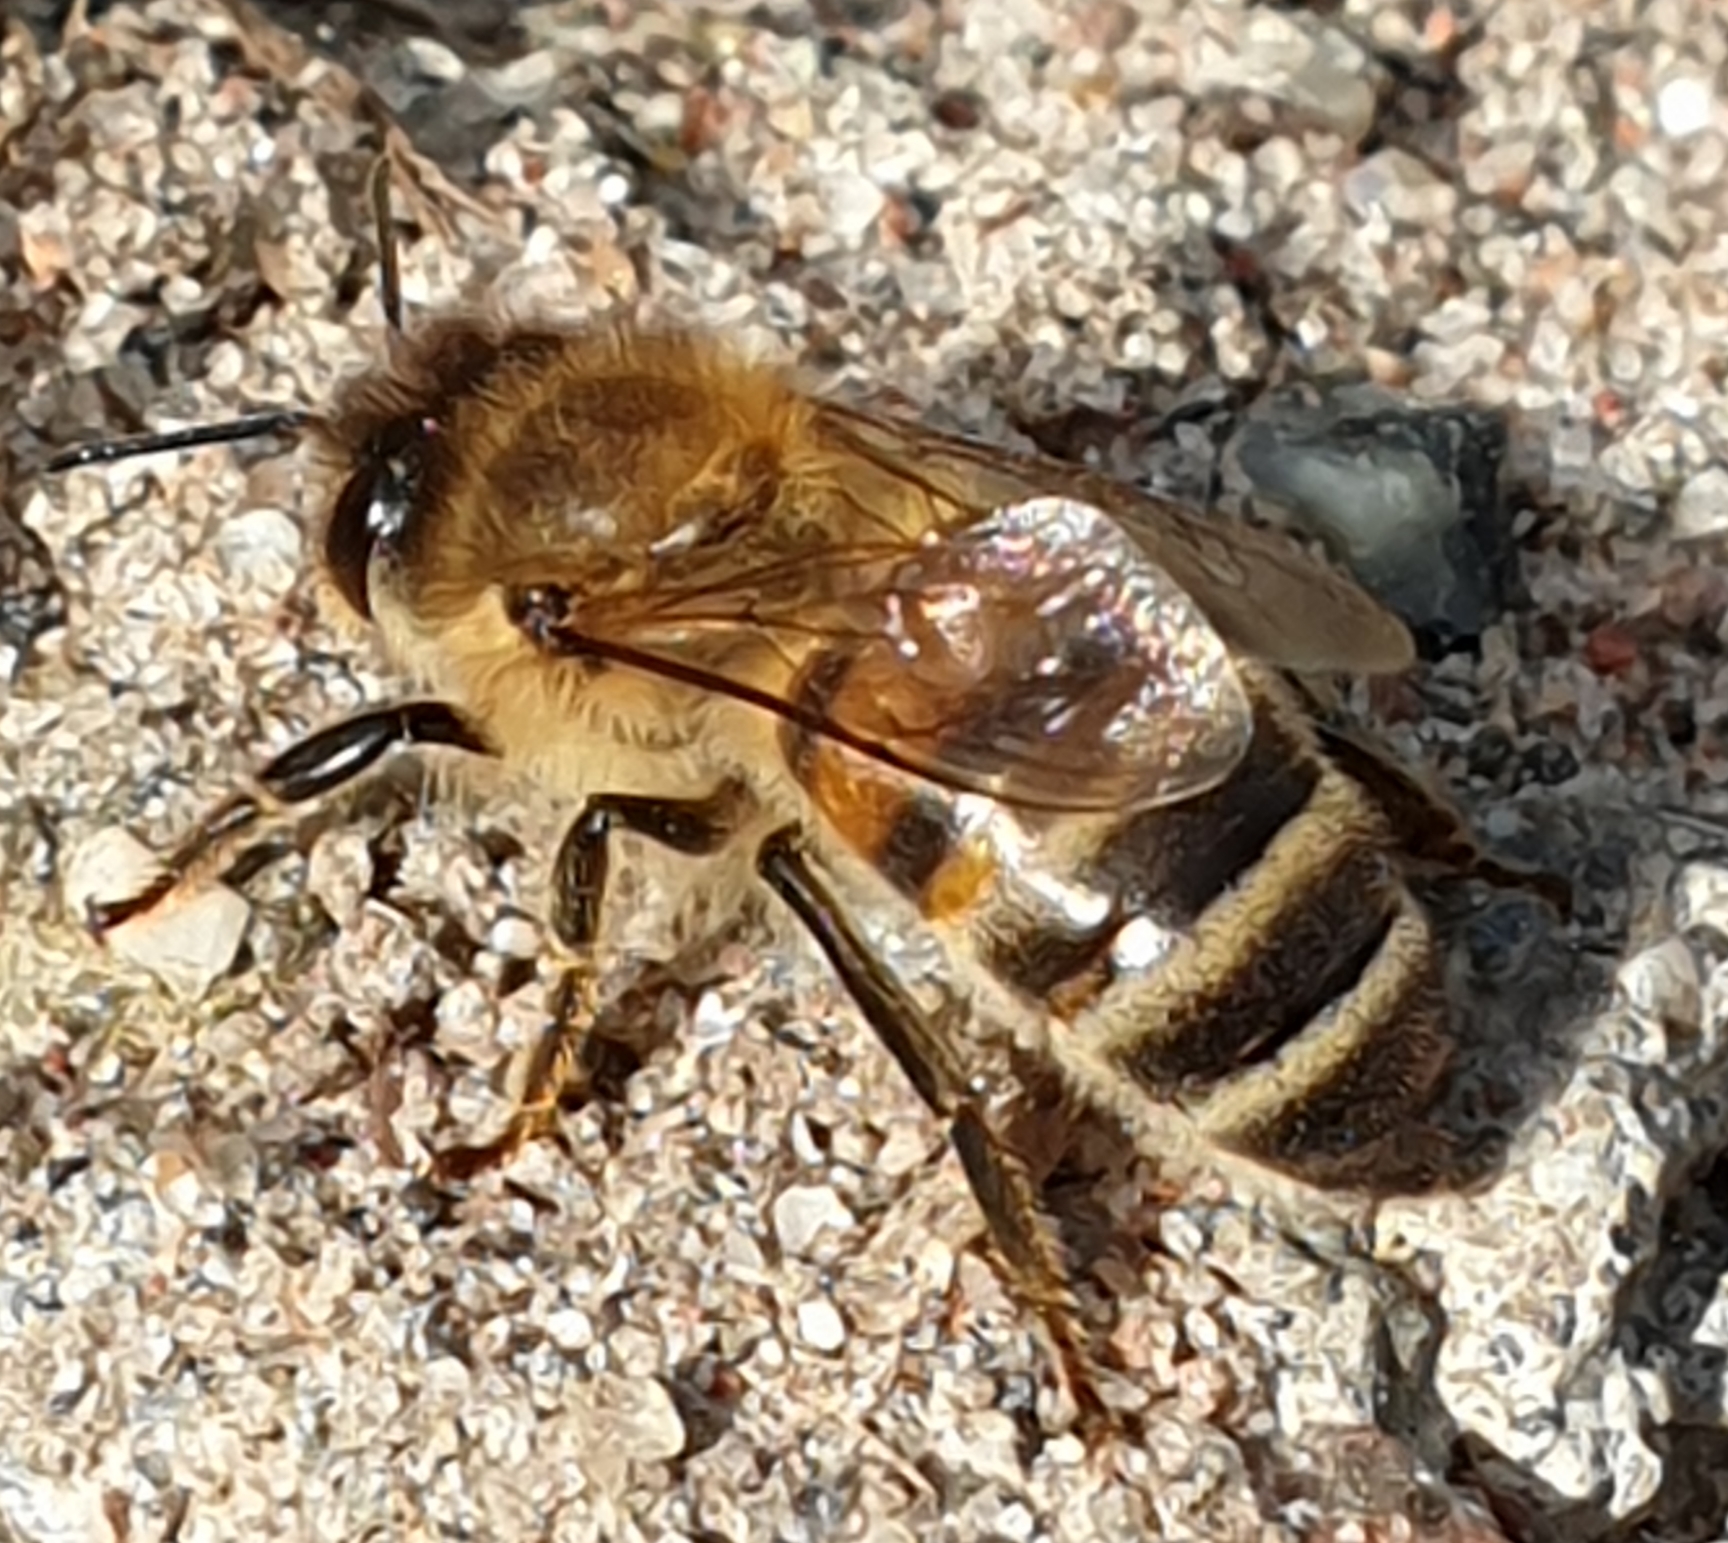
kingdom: Animalia
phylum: Arthropoda
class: Insecta
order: Hymenoptera
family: Apidae
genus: Apis
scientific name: Apis mellifera
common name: Honey bee
